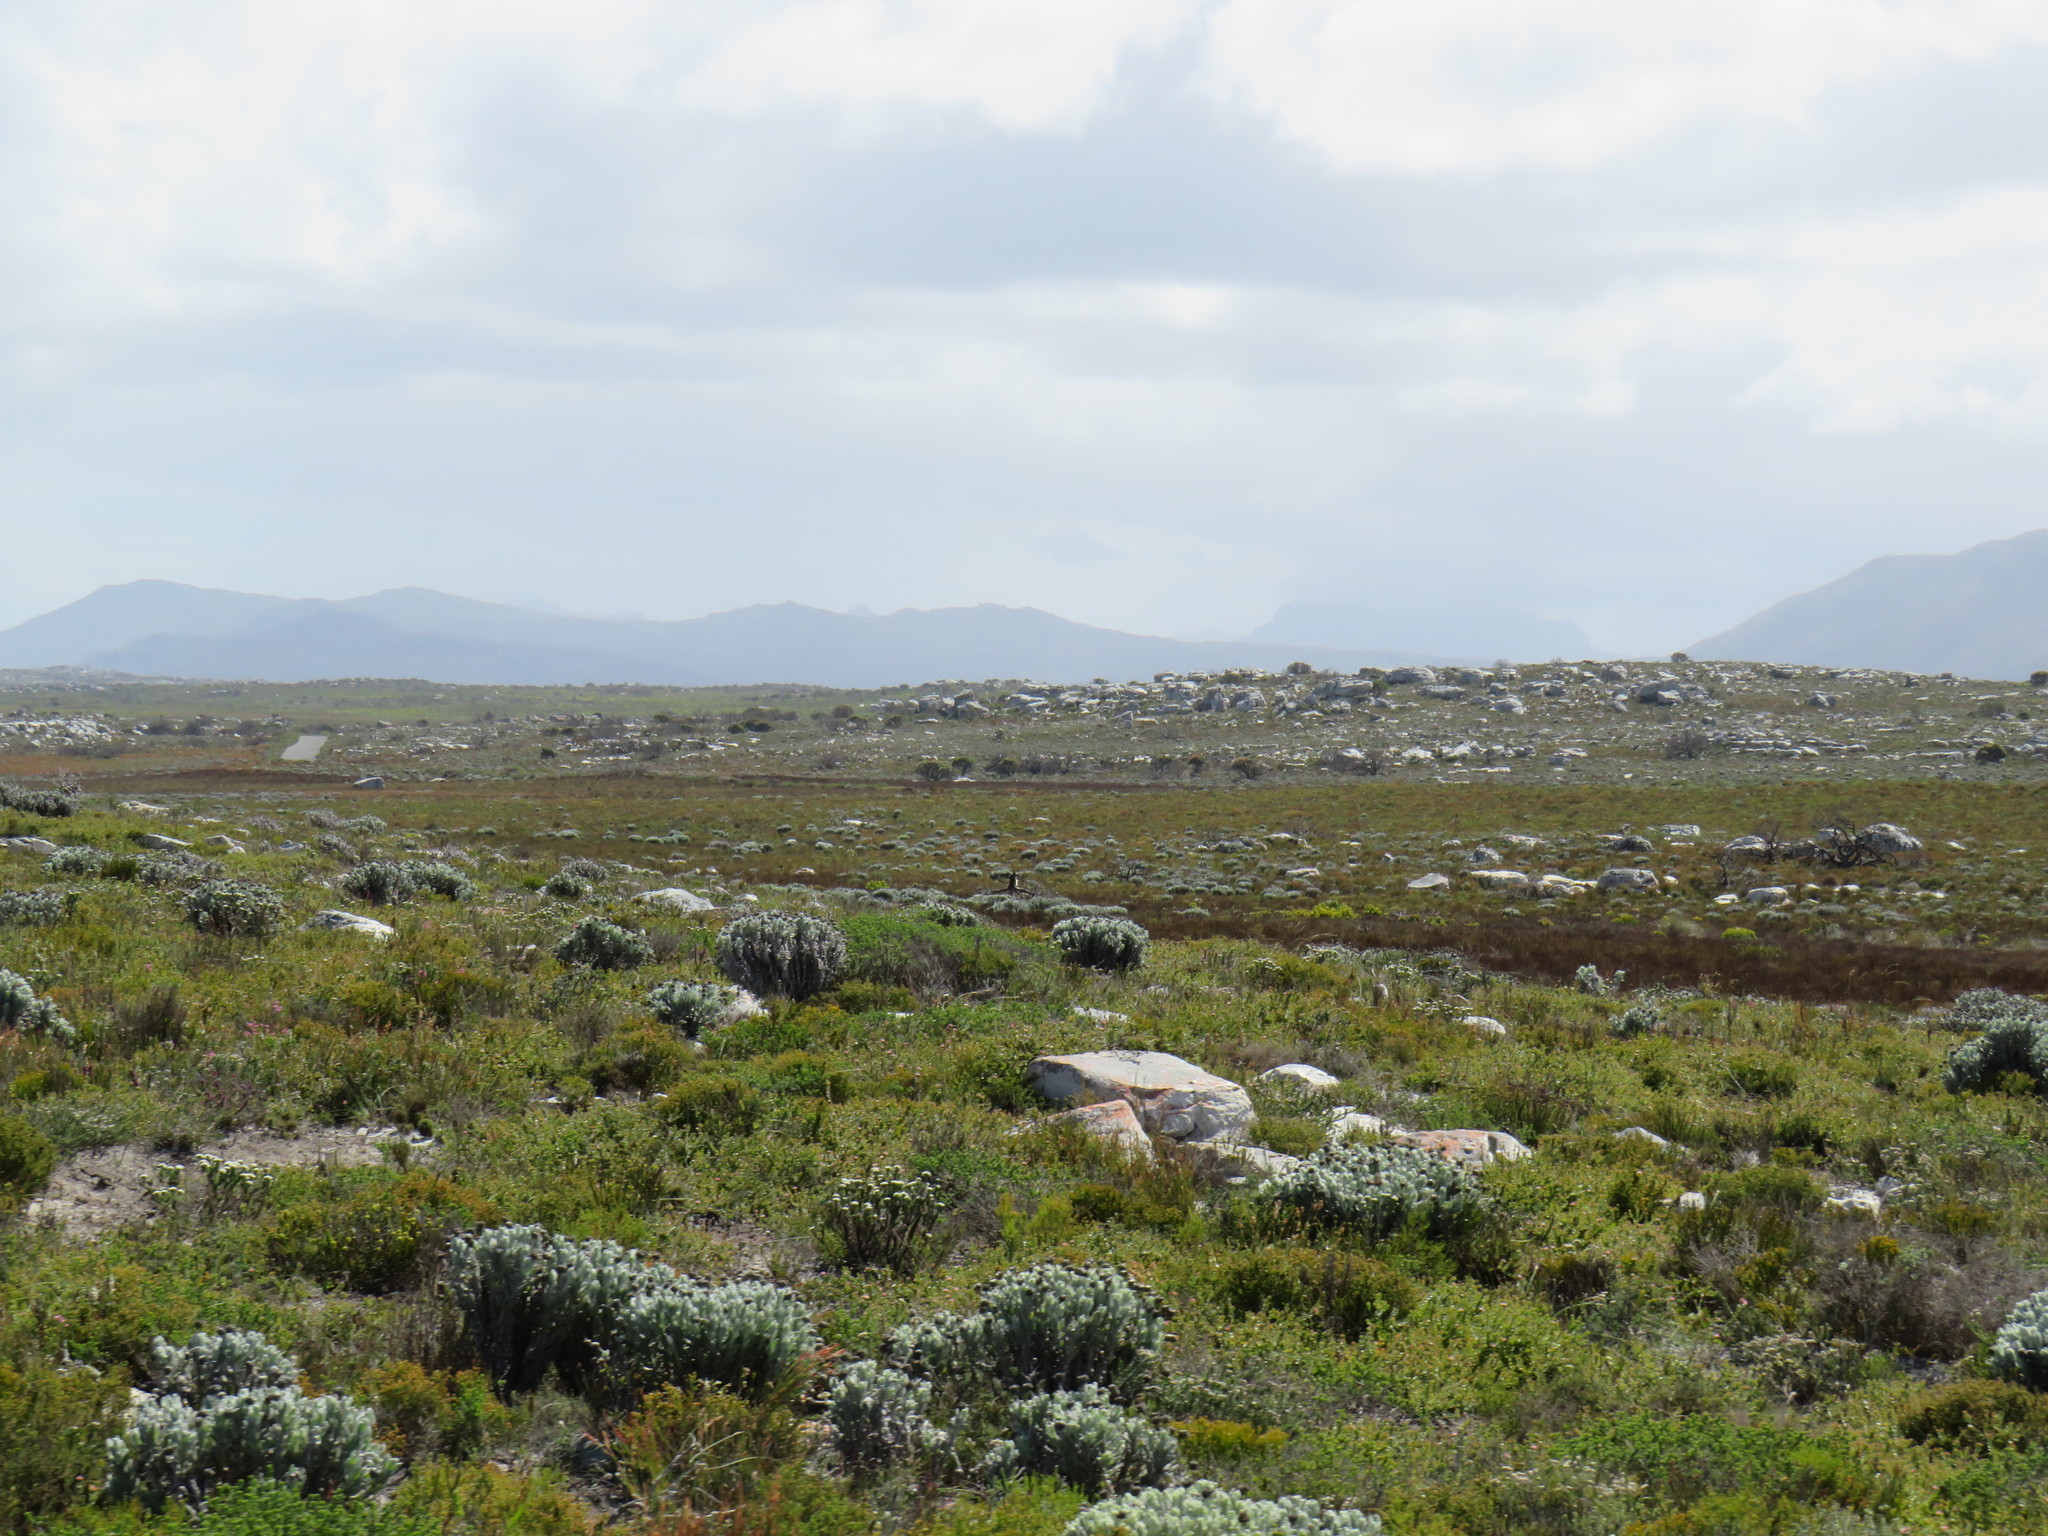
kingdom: Plantae
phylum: Tracheophyta
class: Magnoliopsida
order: Asterales
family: Asteraceae
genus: Syncarpha
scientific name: Syncarpha vestita
